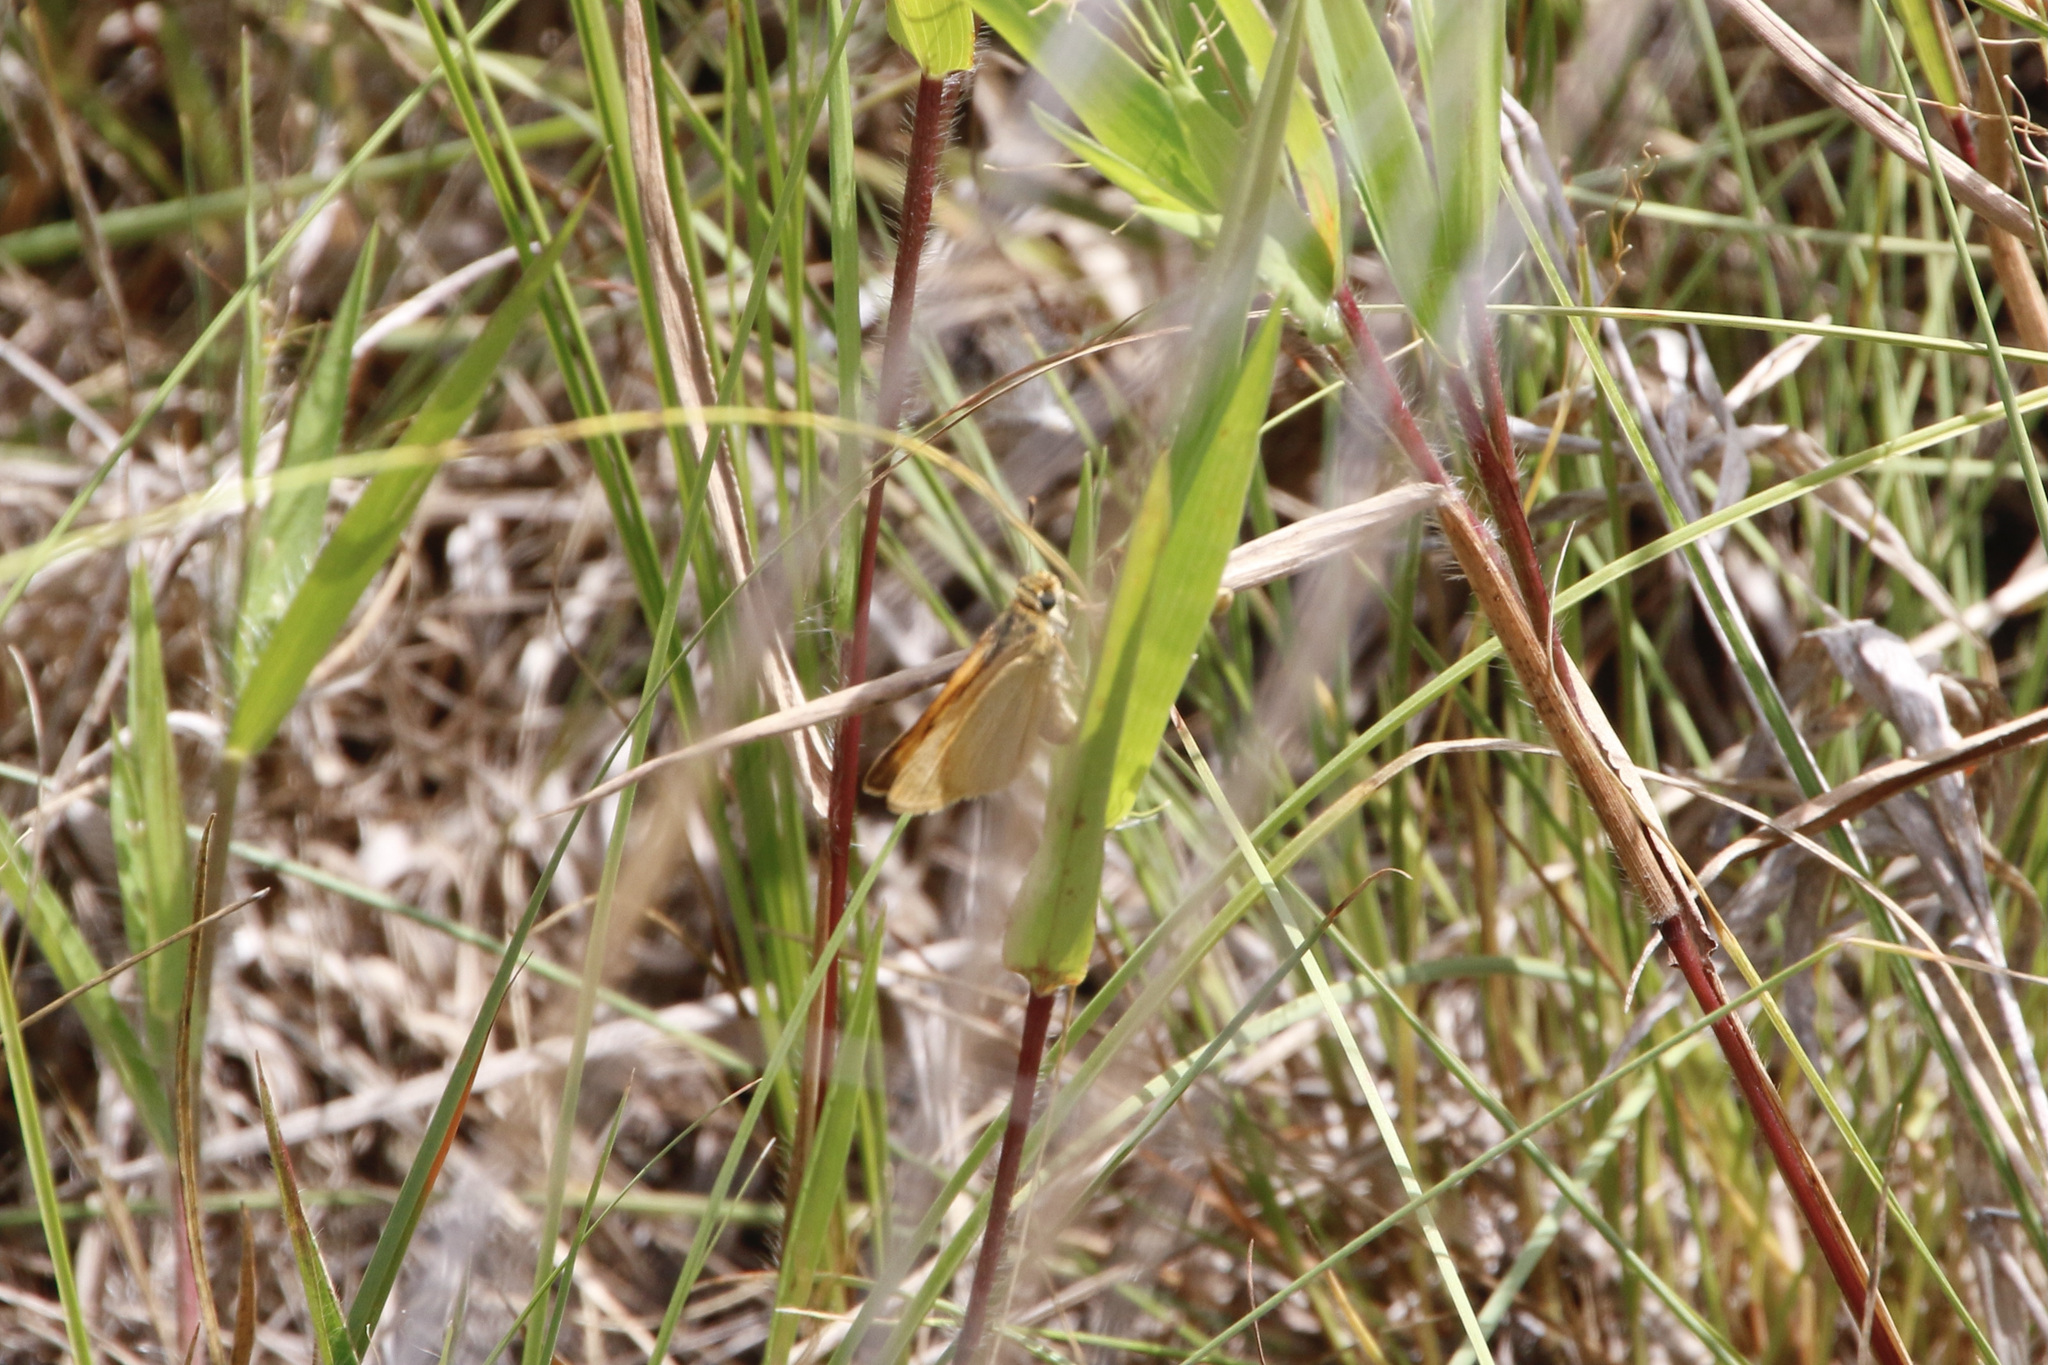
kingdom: Animalia
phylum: Arthropoda
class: Insecta
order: Lepidoptera
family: Hesperiidae
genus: Atrytone
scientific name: Atrytone delaware
